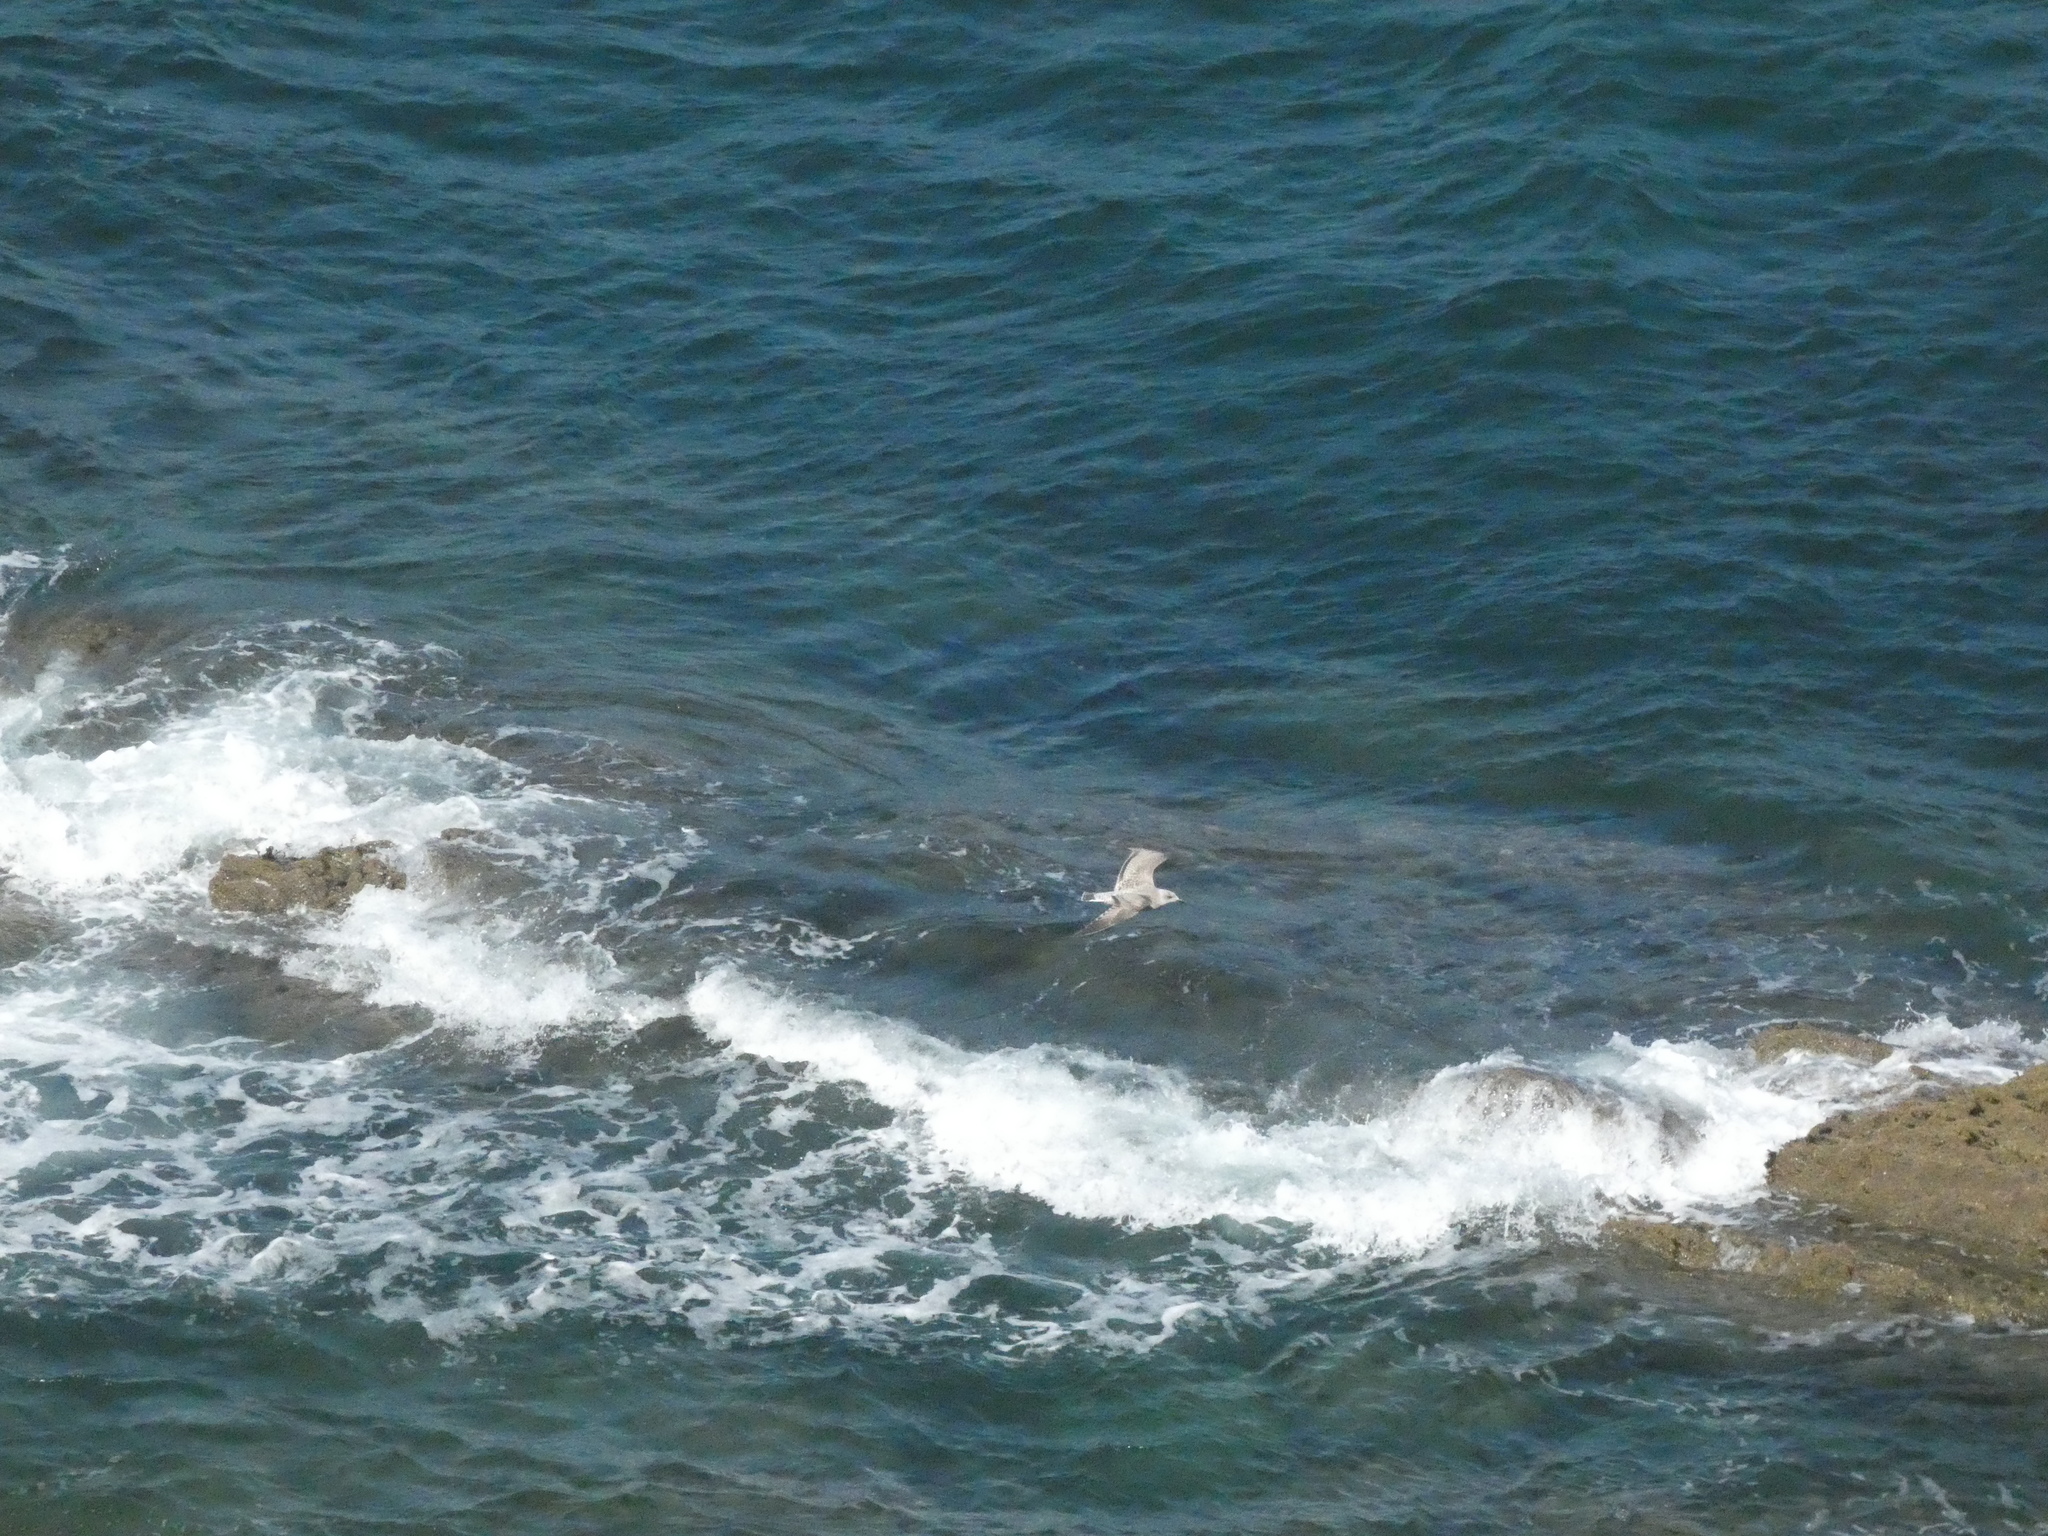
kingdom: Animalia
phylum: Chordata
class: Aves
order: Charadriiformes
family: Laridae
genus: Larus
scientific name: Larus argentatus
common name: Herring gull
